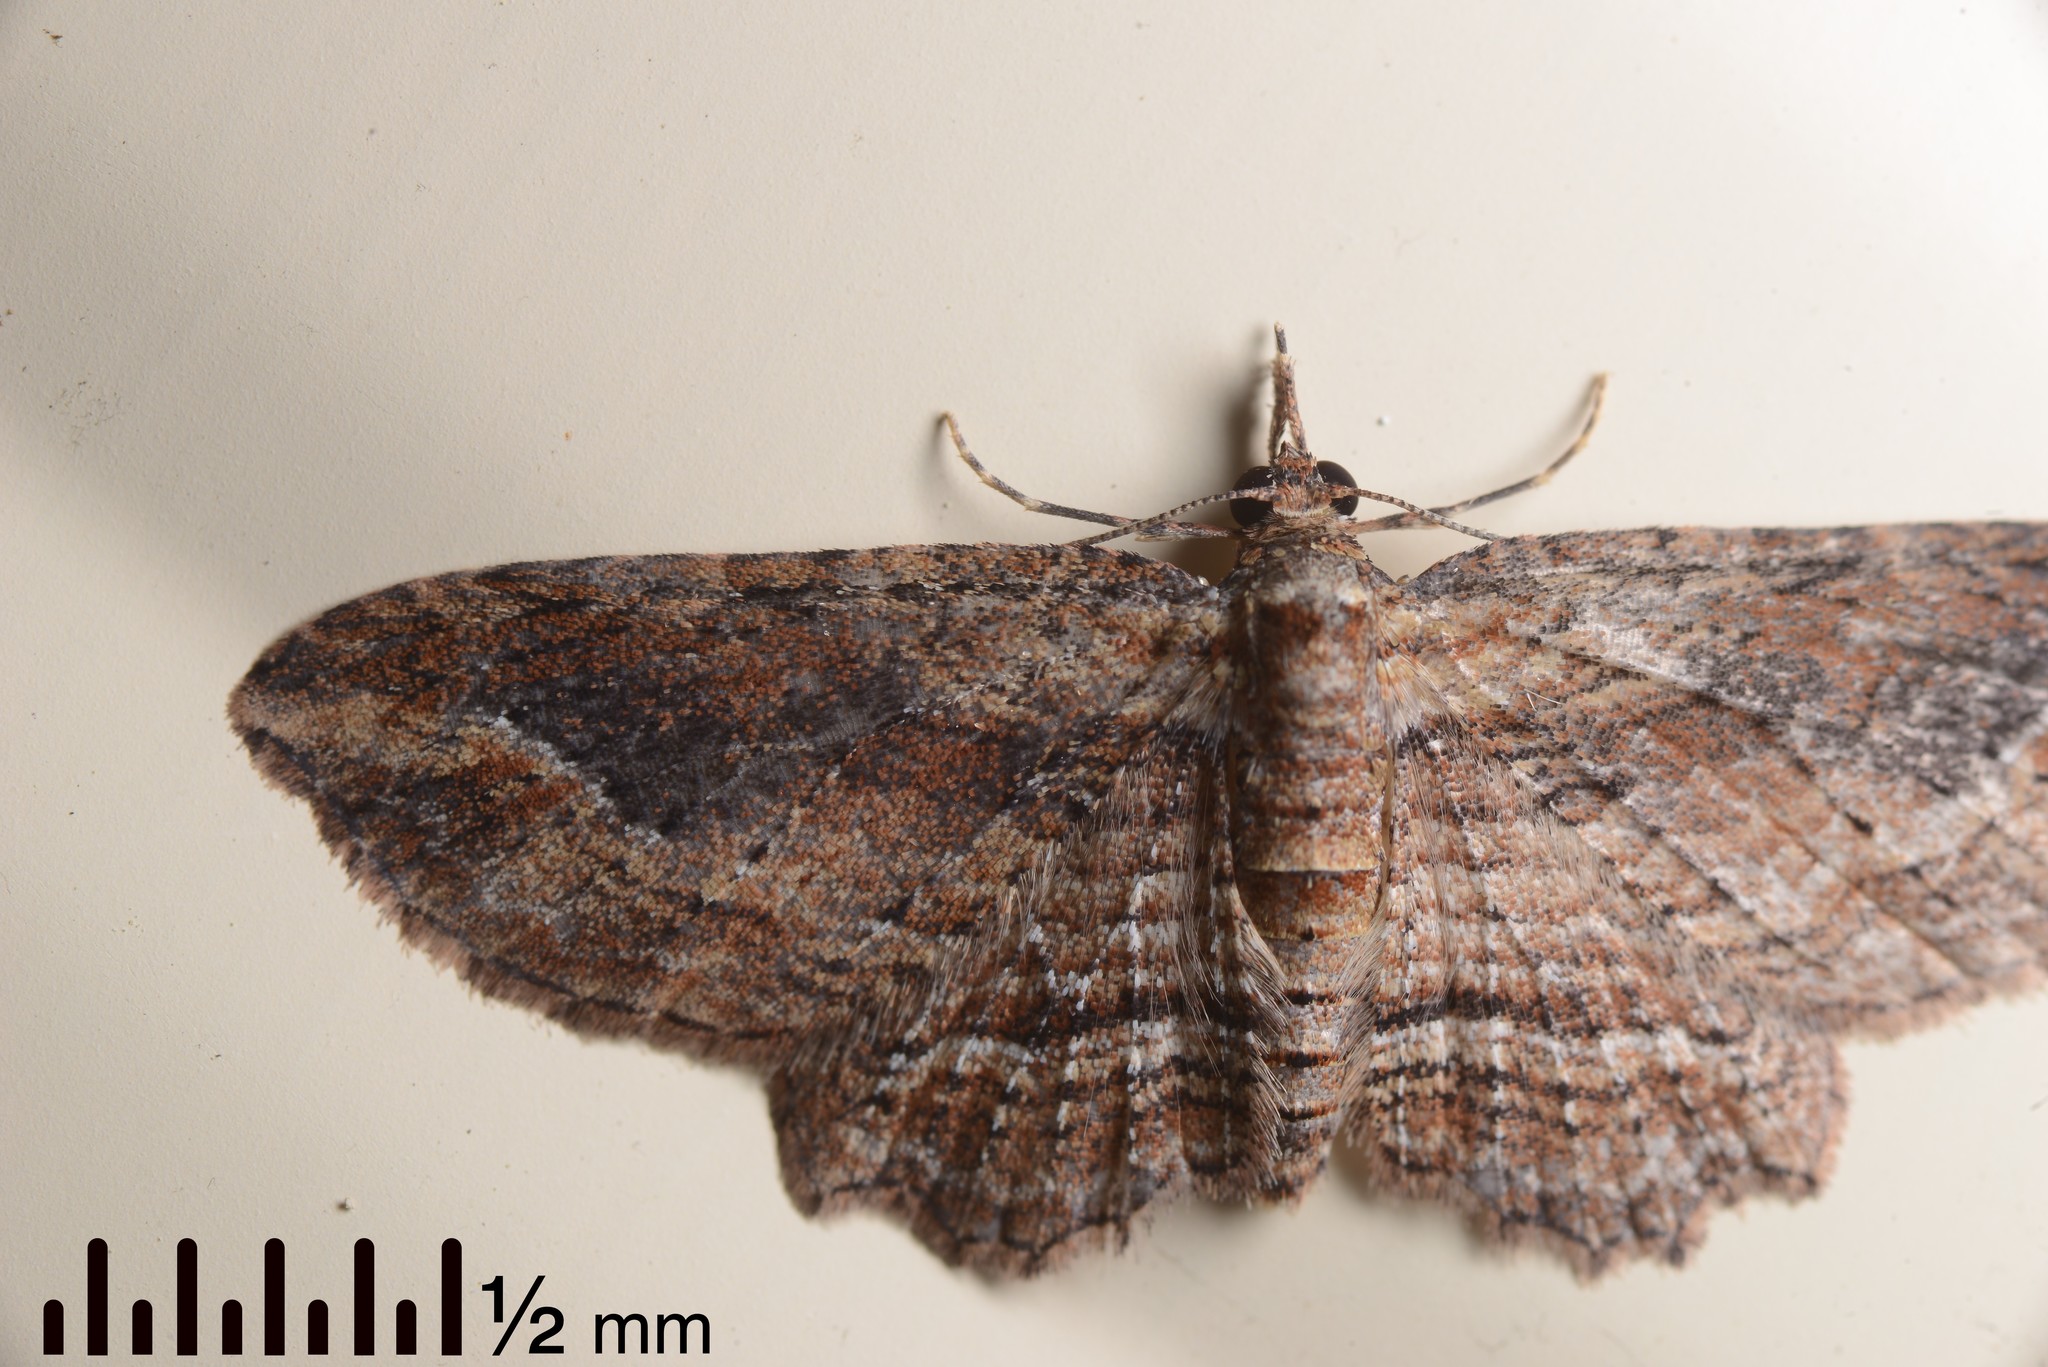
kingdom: Animalia
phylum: Arthropoda
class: Insecta
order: Lepidoptera
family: Geometridae
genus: Chloroclystis
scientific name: Chloroclystis filata
